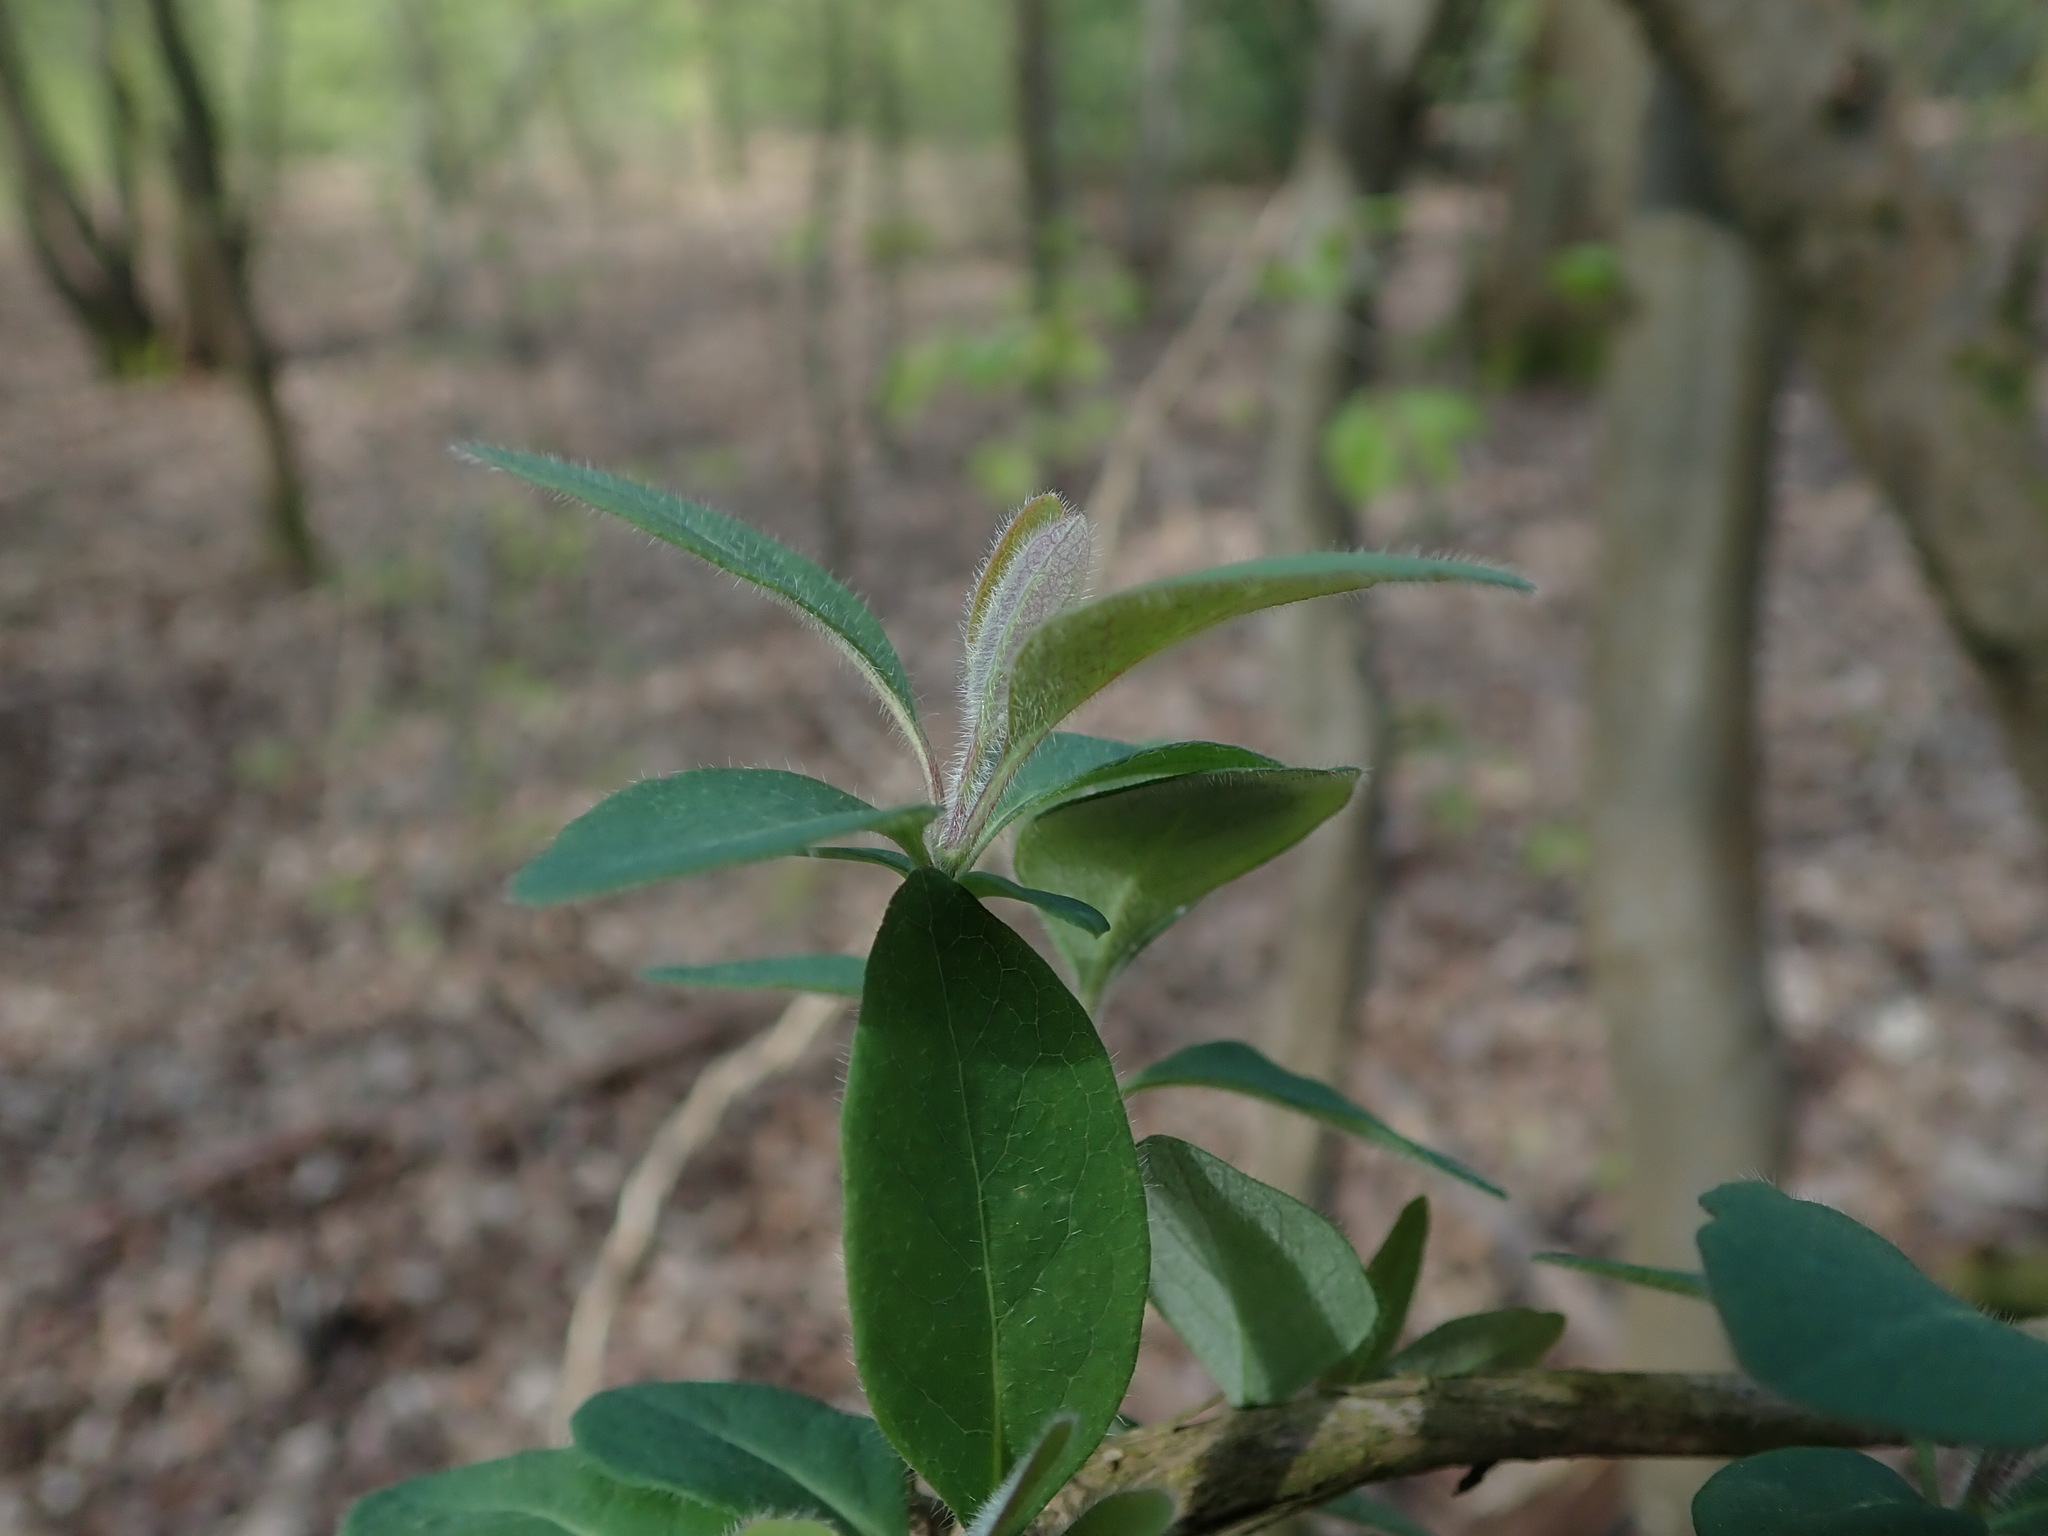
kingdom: Plantae
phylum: Tracheophyta
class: Magnoliopsida
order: Dipsacales
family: Caprifoliaceae
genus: Lonicera
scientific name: Lonicera periclymenum
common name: European honeysuckle
